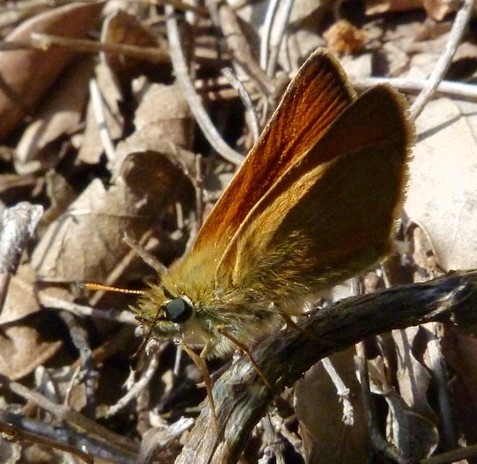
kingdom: Animalia
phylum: Arthropoda
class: Insecta
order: Lepidoptera
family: Hesperiidae
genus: Thymelicus
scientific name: Thymelicus lineola
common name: Essex skipper
